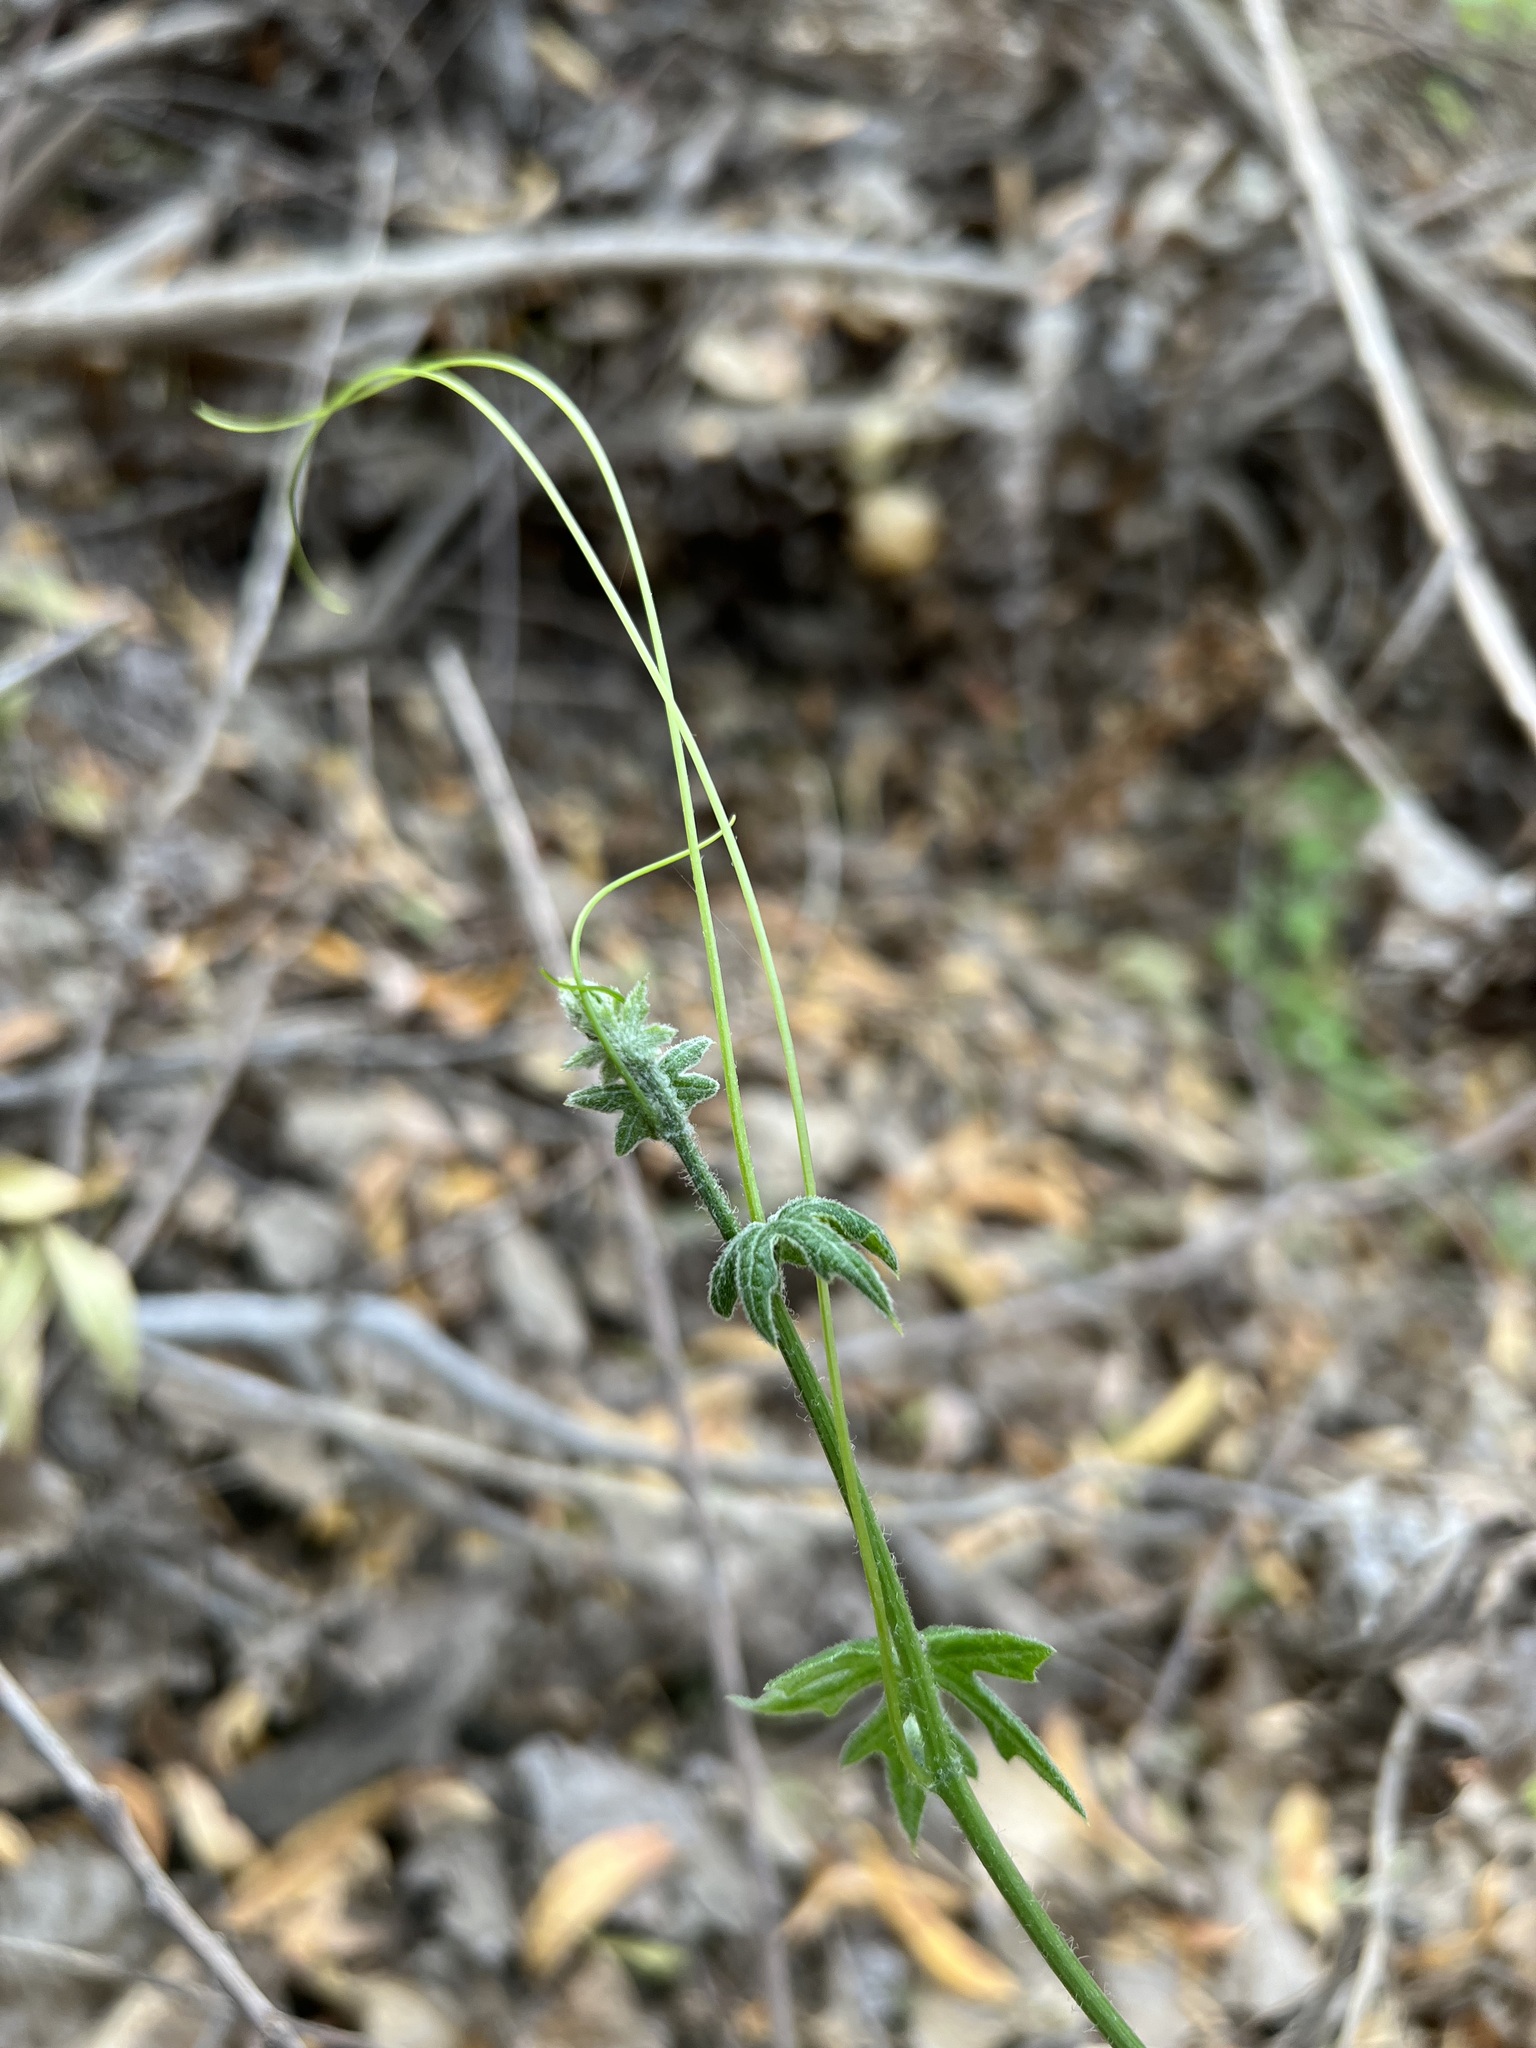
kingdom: Plantae
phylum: Tracheophyta
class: Magnoliopsida
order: Cucurbitales
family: Cucurbitaceae
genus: Marah
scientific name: Marah macrocarpa
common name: Cucamonga manroot
